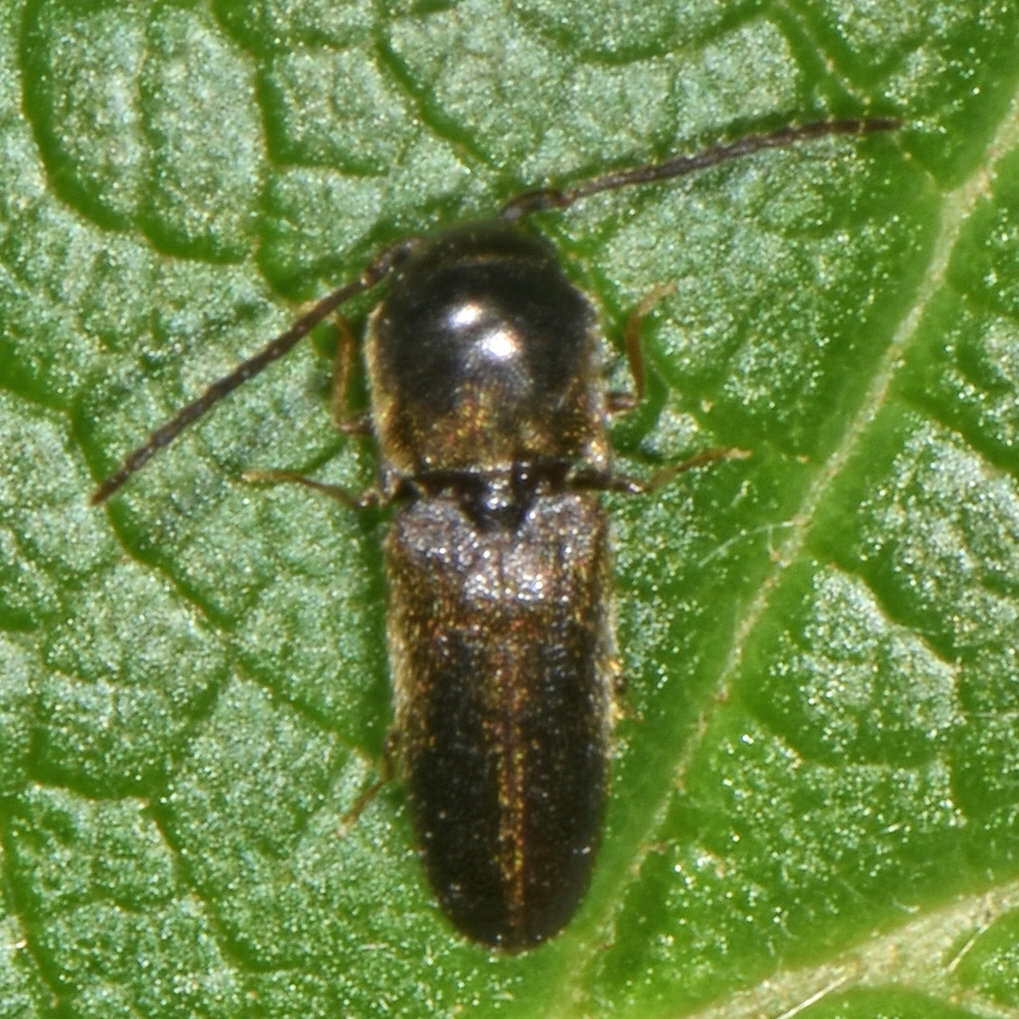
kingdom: Animalia
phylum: Arthropoda
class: Insecta
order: Coleoptera
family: Eucnemidae
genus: Microrhagus
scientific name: Microrhagus breviangularis
